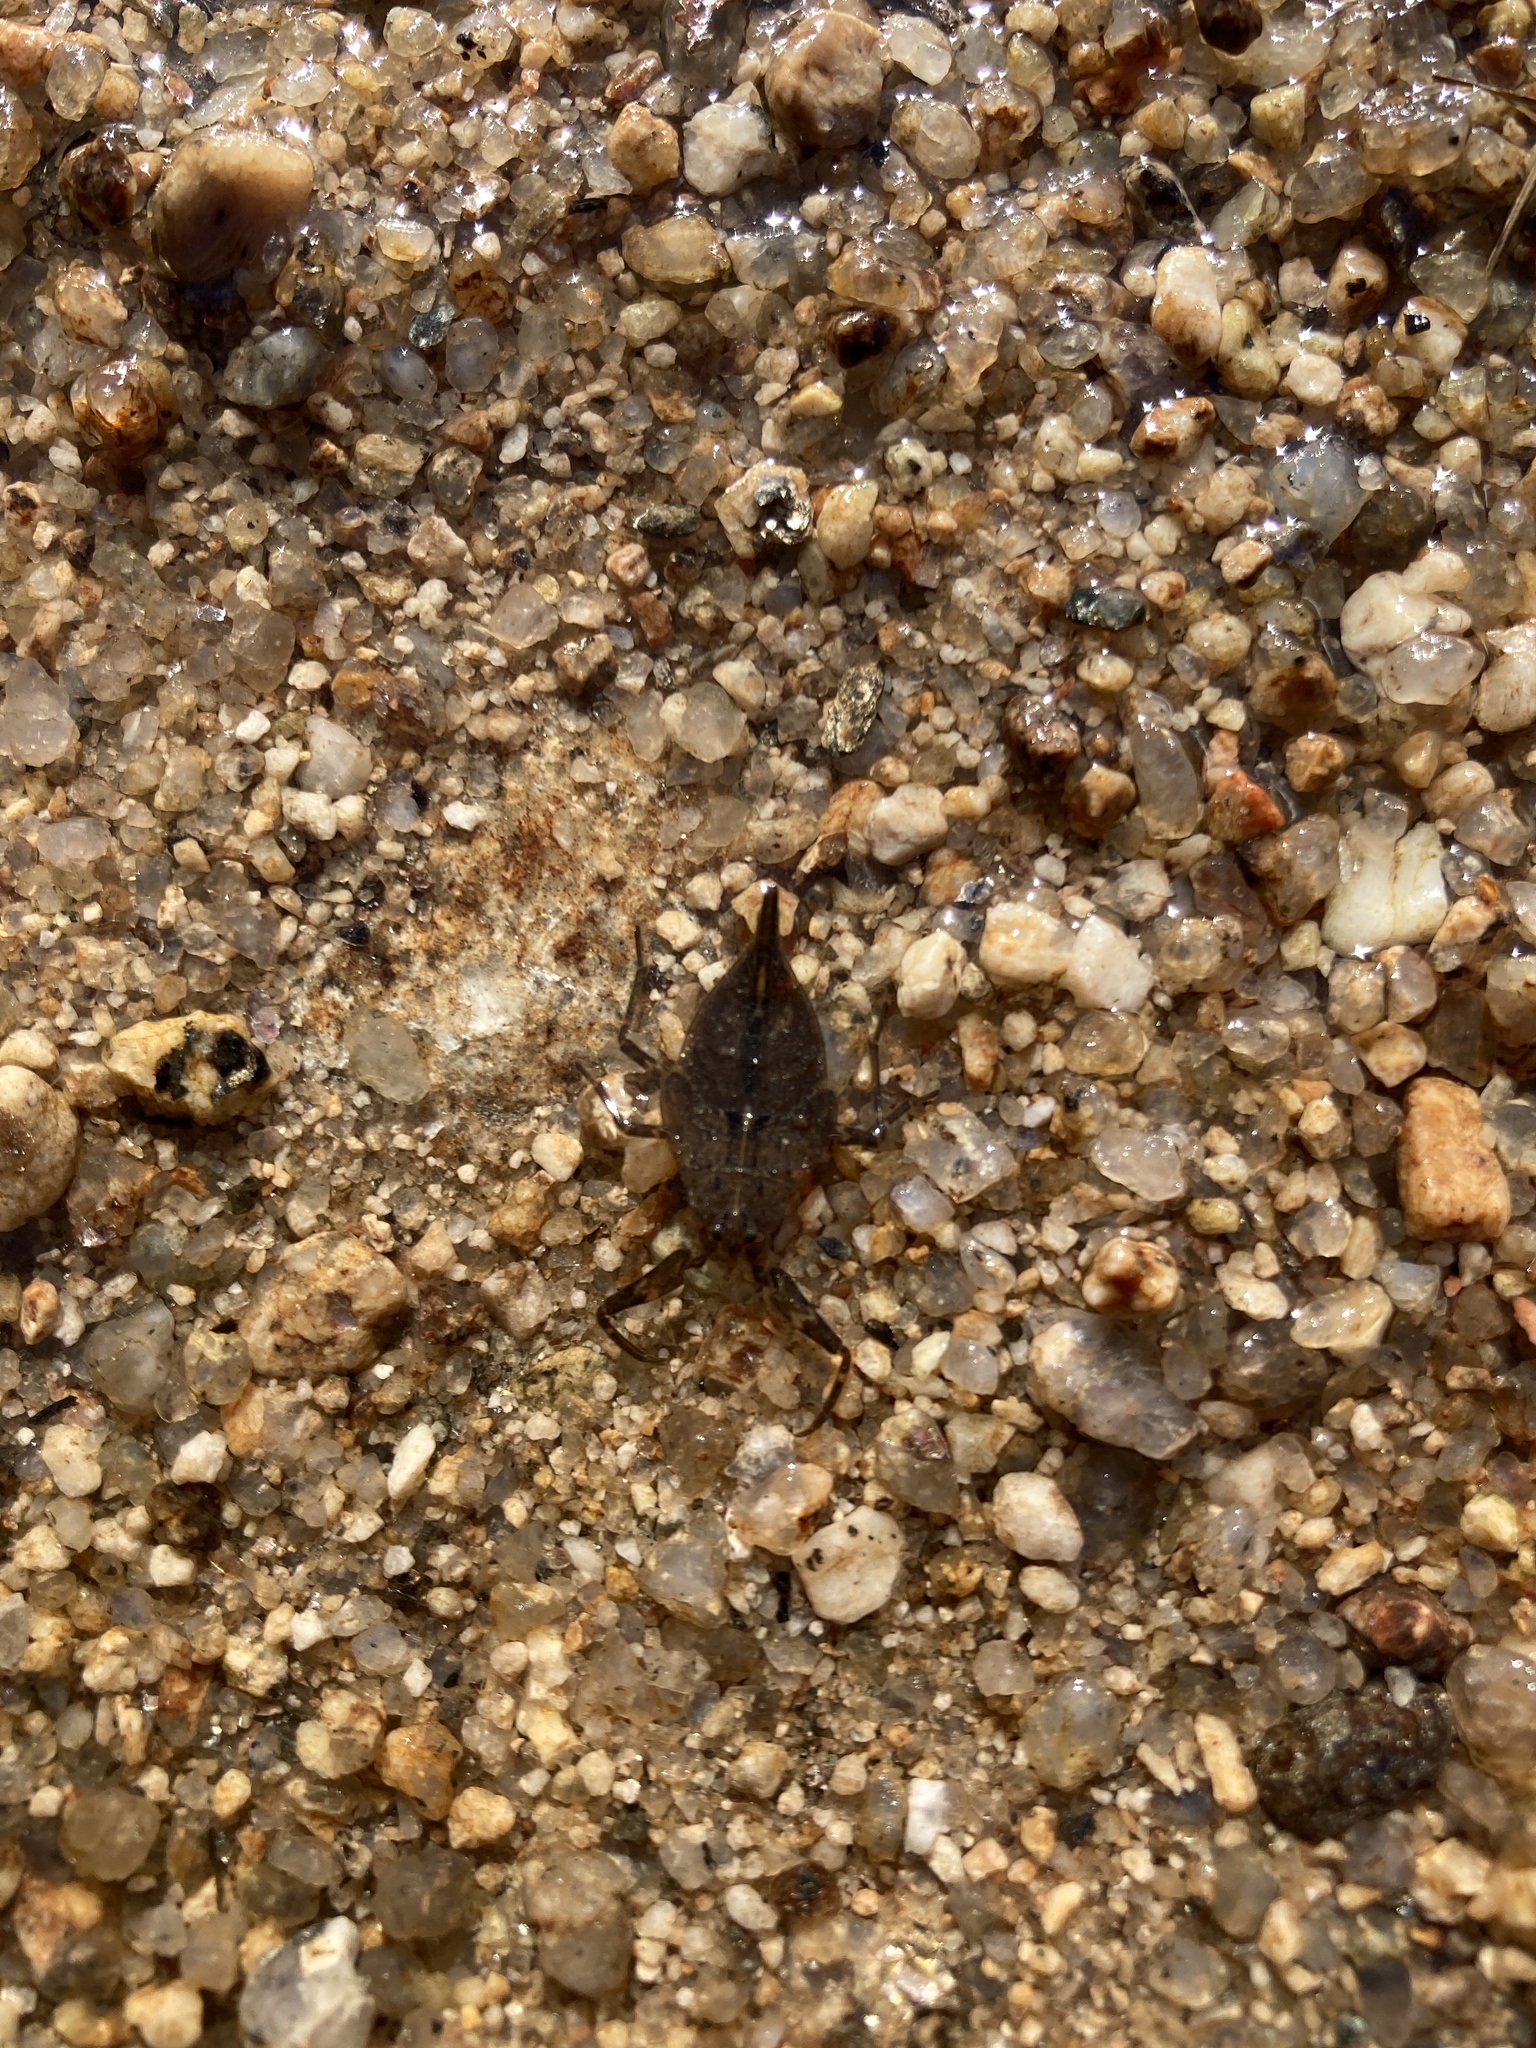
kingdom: Animalia
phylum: Arthropoda
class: Insecta
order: Hemiptera
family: Nepidae
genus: Nepa
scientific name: Nepa cinerea
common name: Water scorpion
